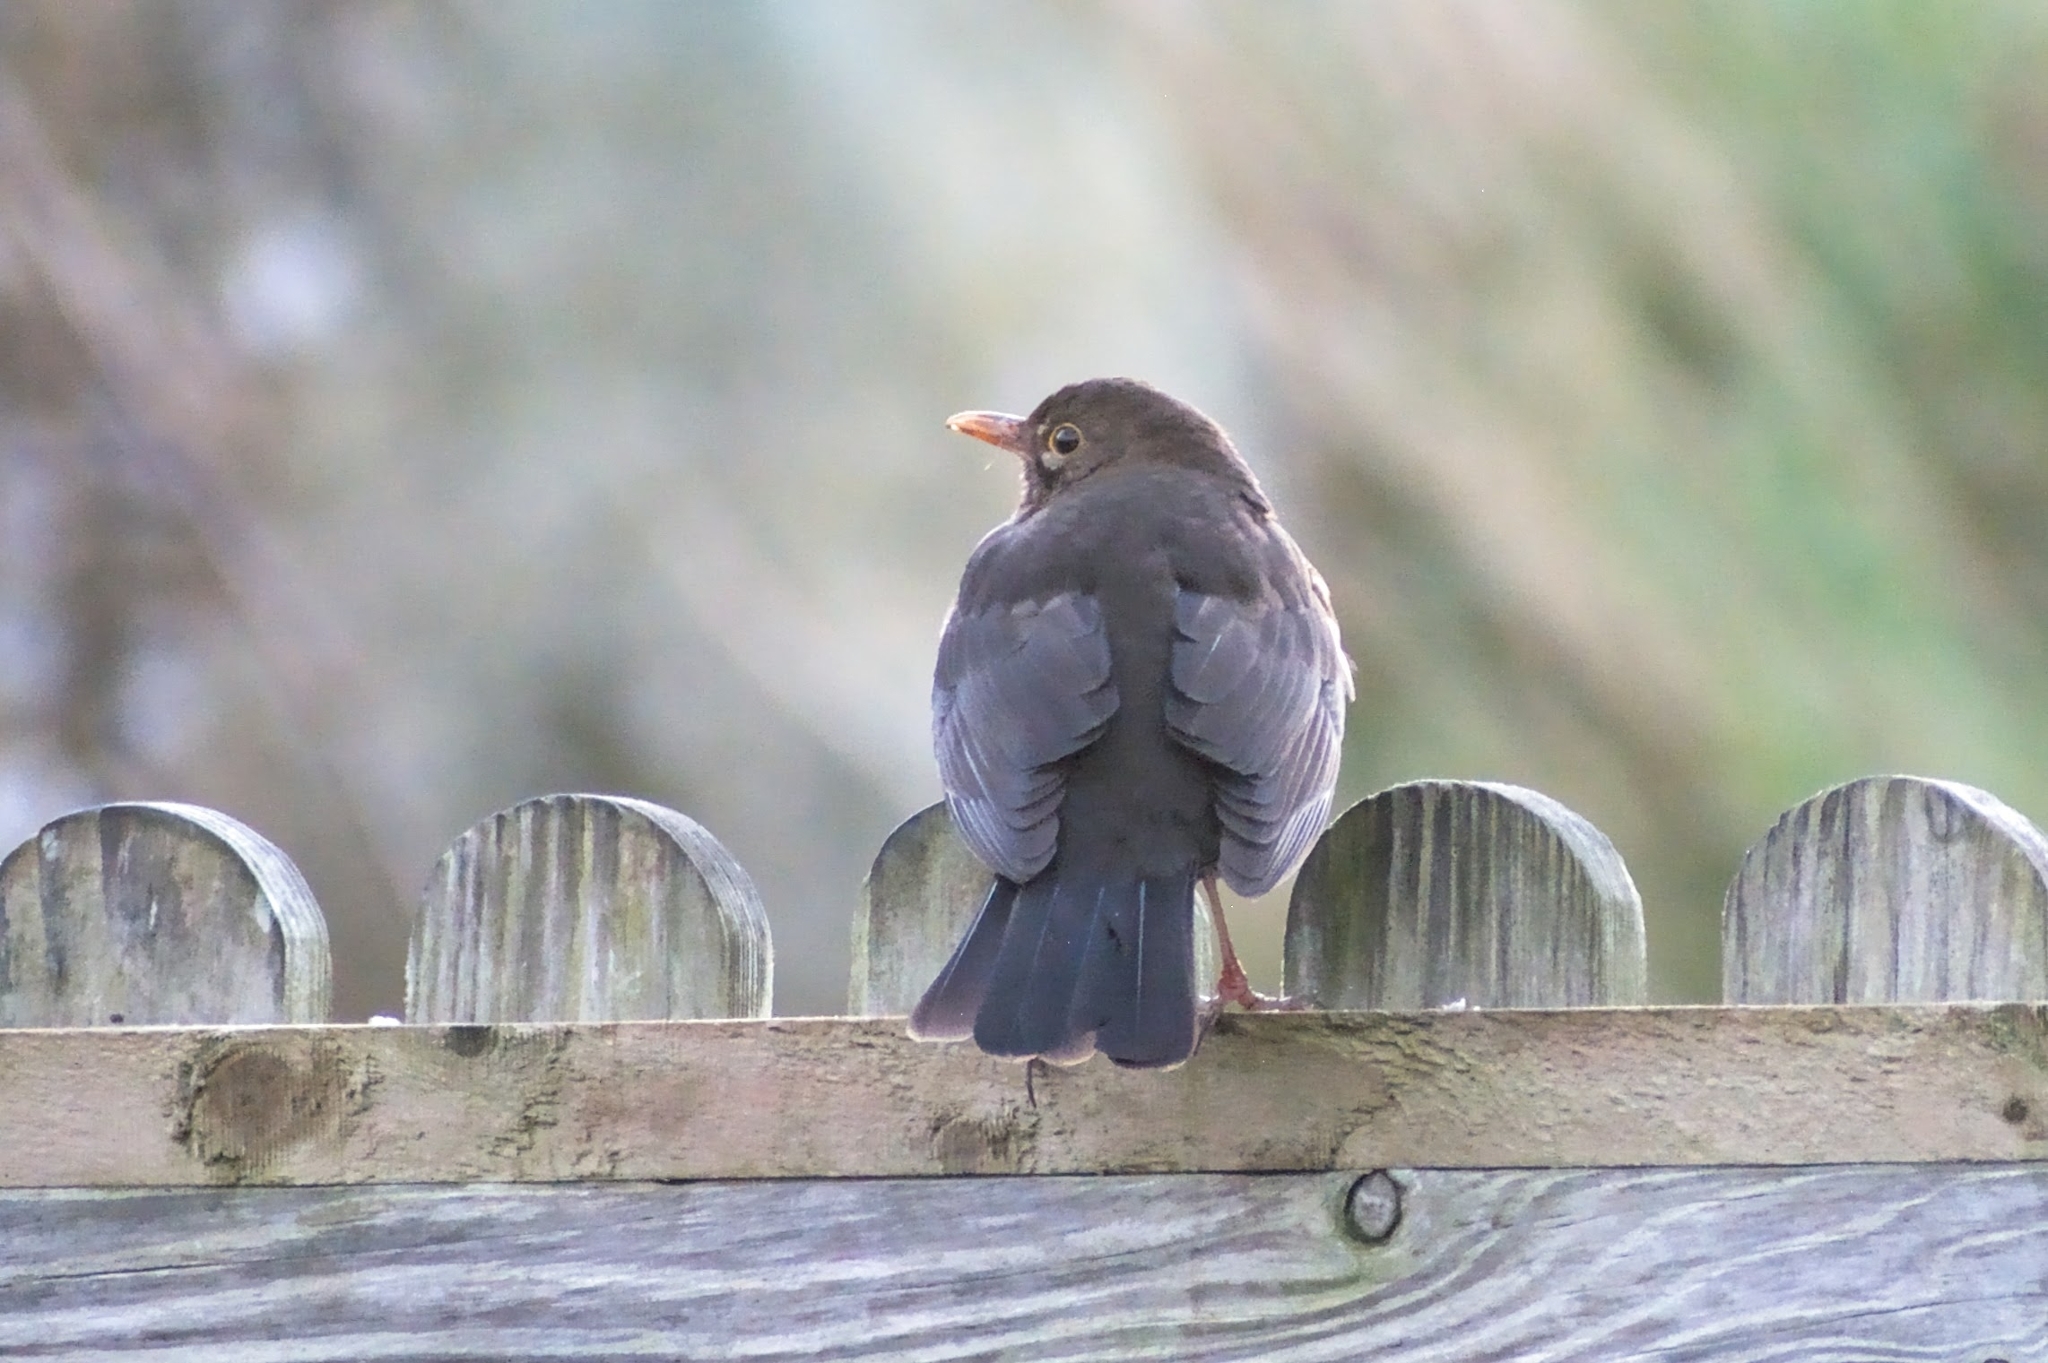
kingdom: Animalia
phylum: Chordata
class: Aves
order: Passeriformes
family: Turdidae
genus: Turdus
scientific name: Turdus merula
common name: Common blackbird
